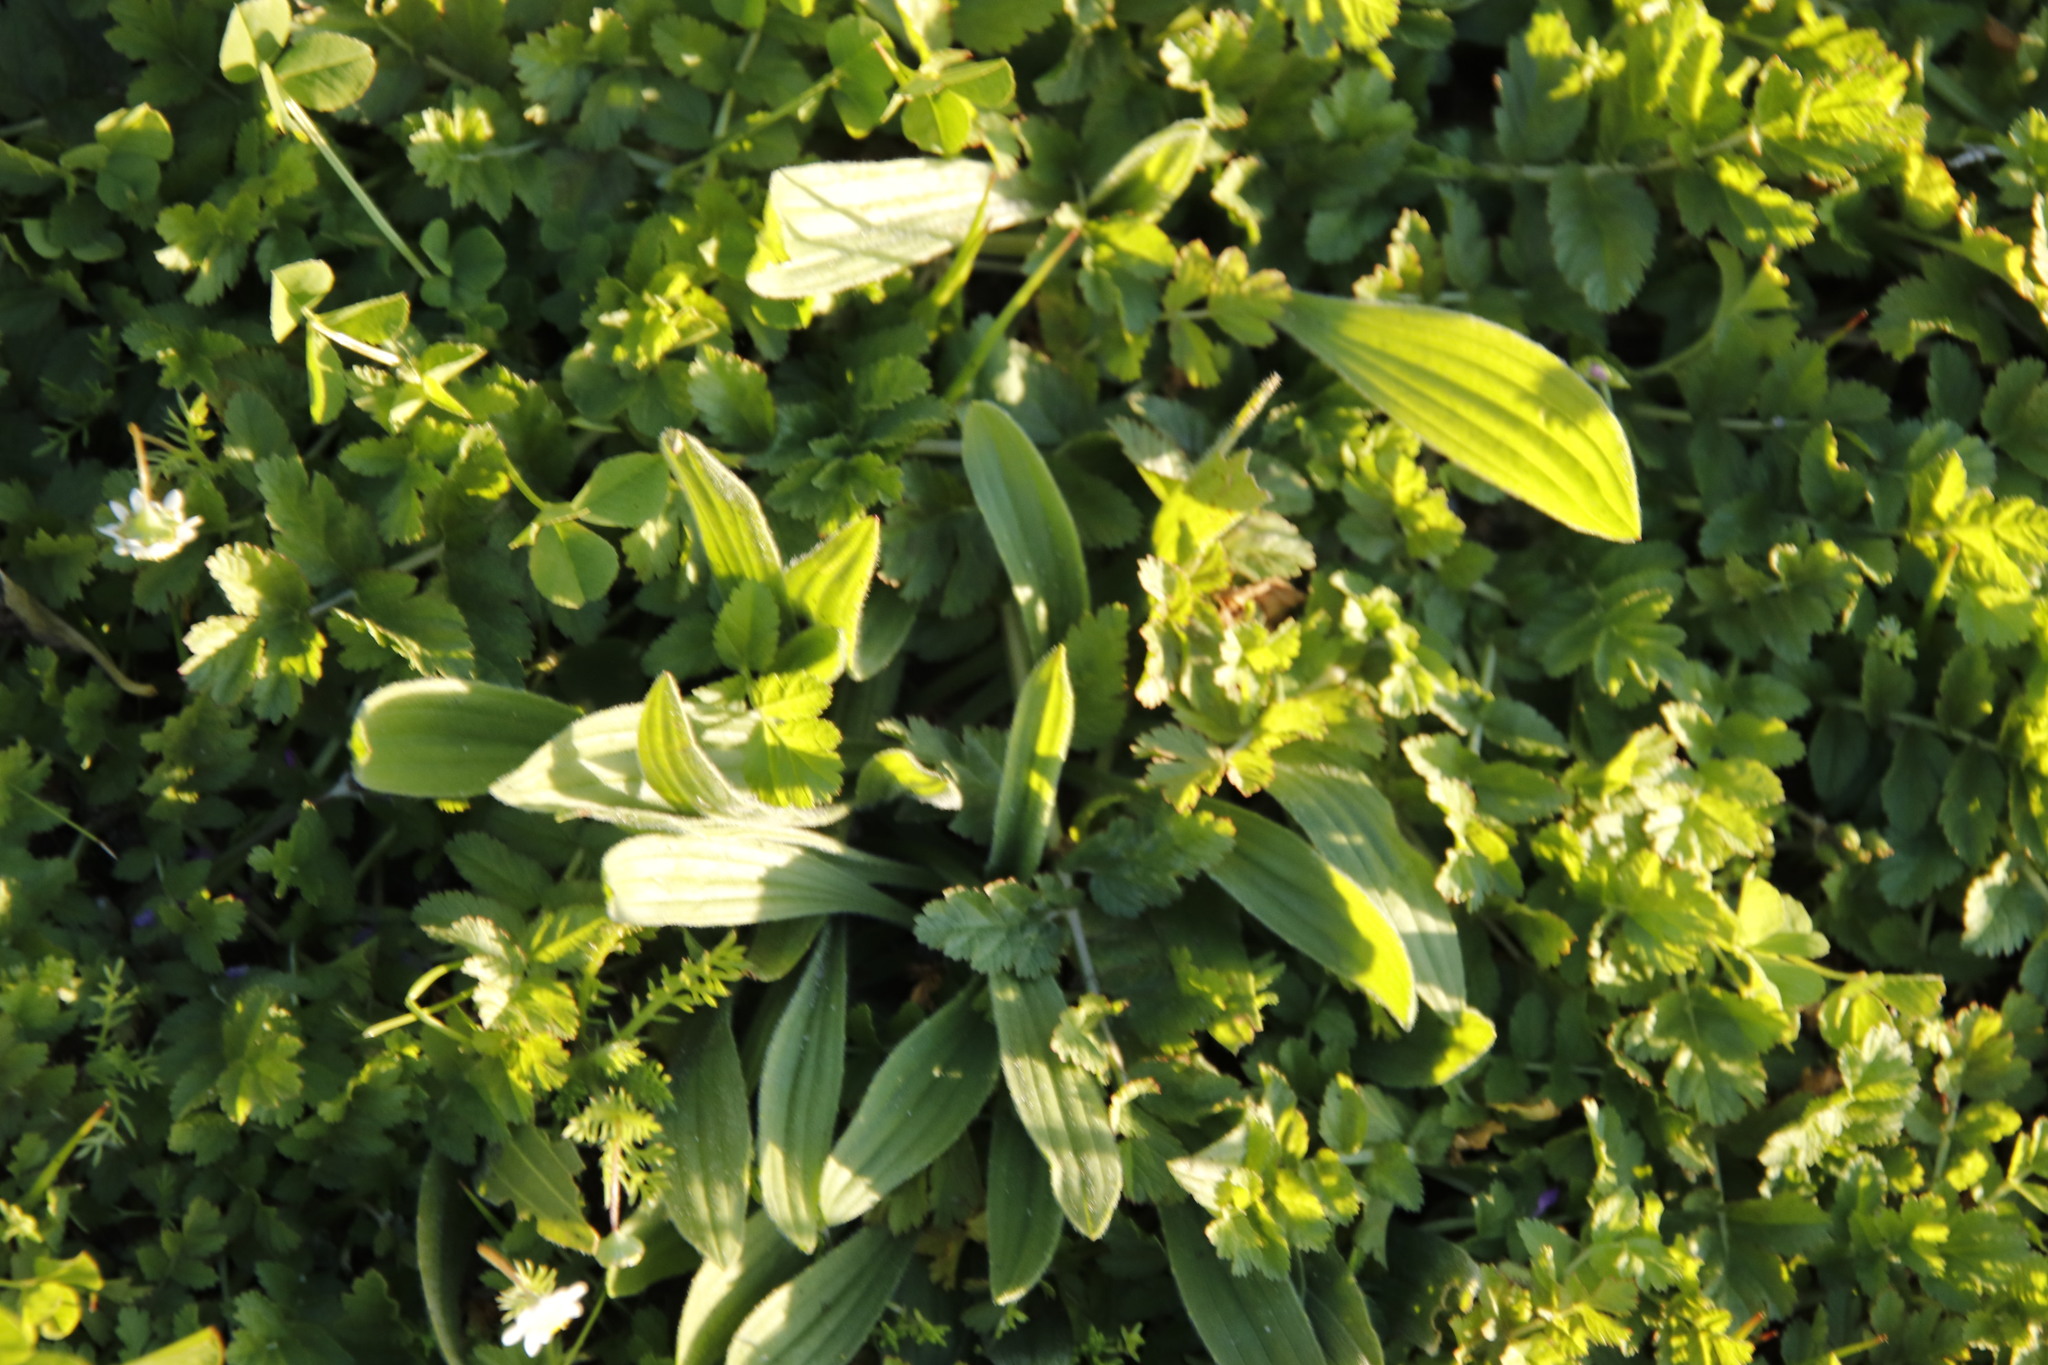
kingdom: Plantae
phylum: Tracheophyta
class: Magnoliopsida
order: Lamiales
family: Plantaginaceae
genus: Plantago
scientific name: Plantago lanceolata
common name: Ribwort plantain
